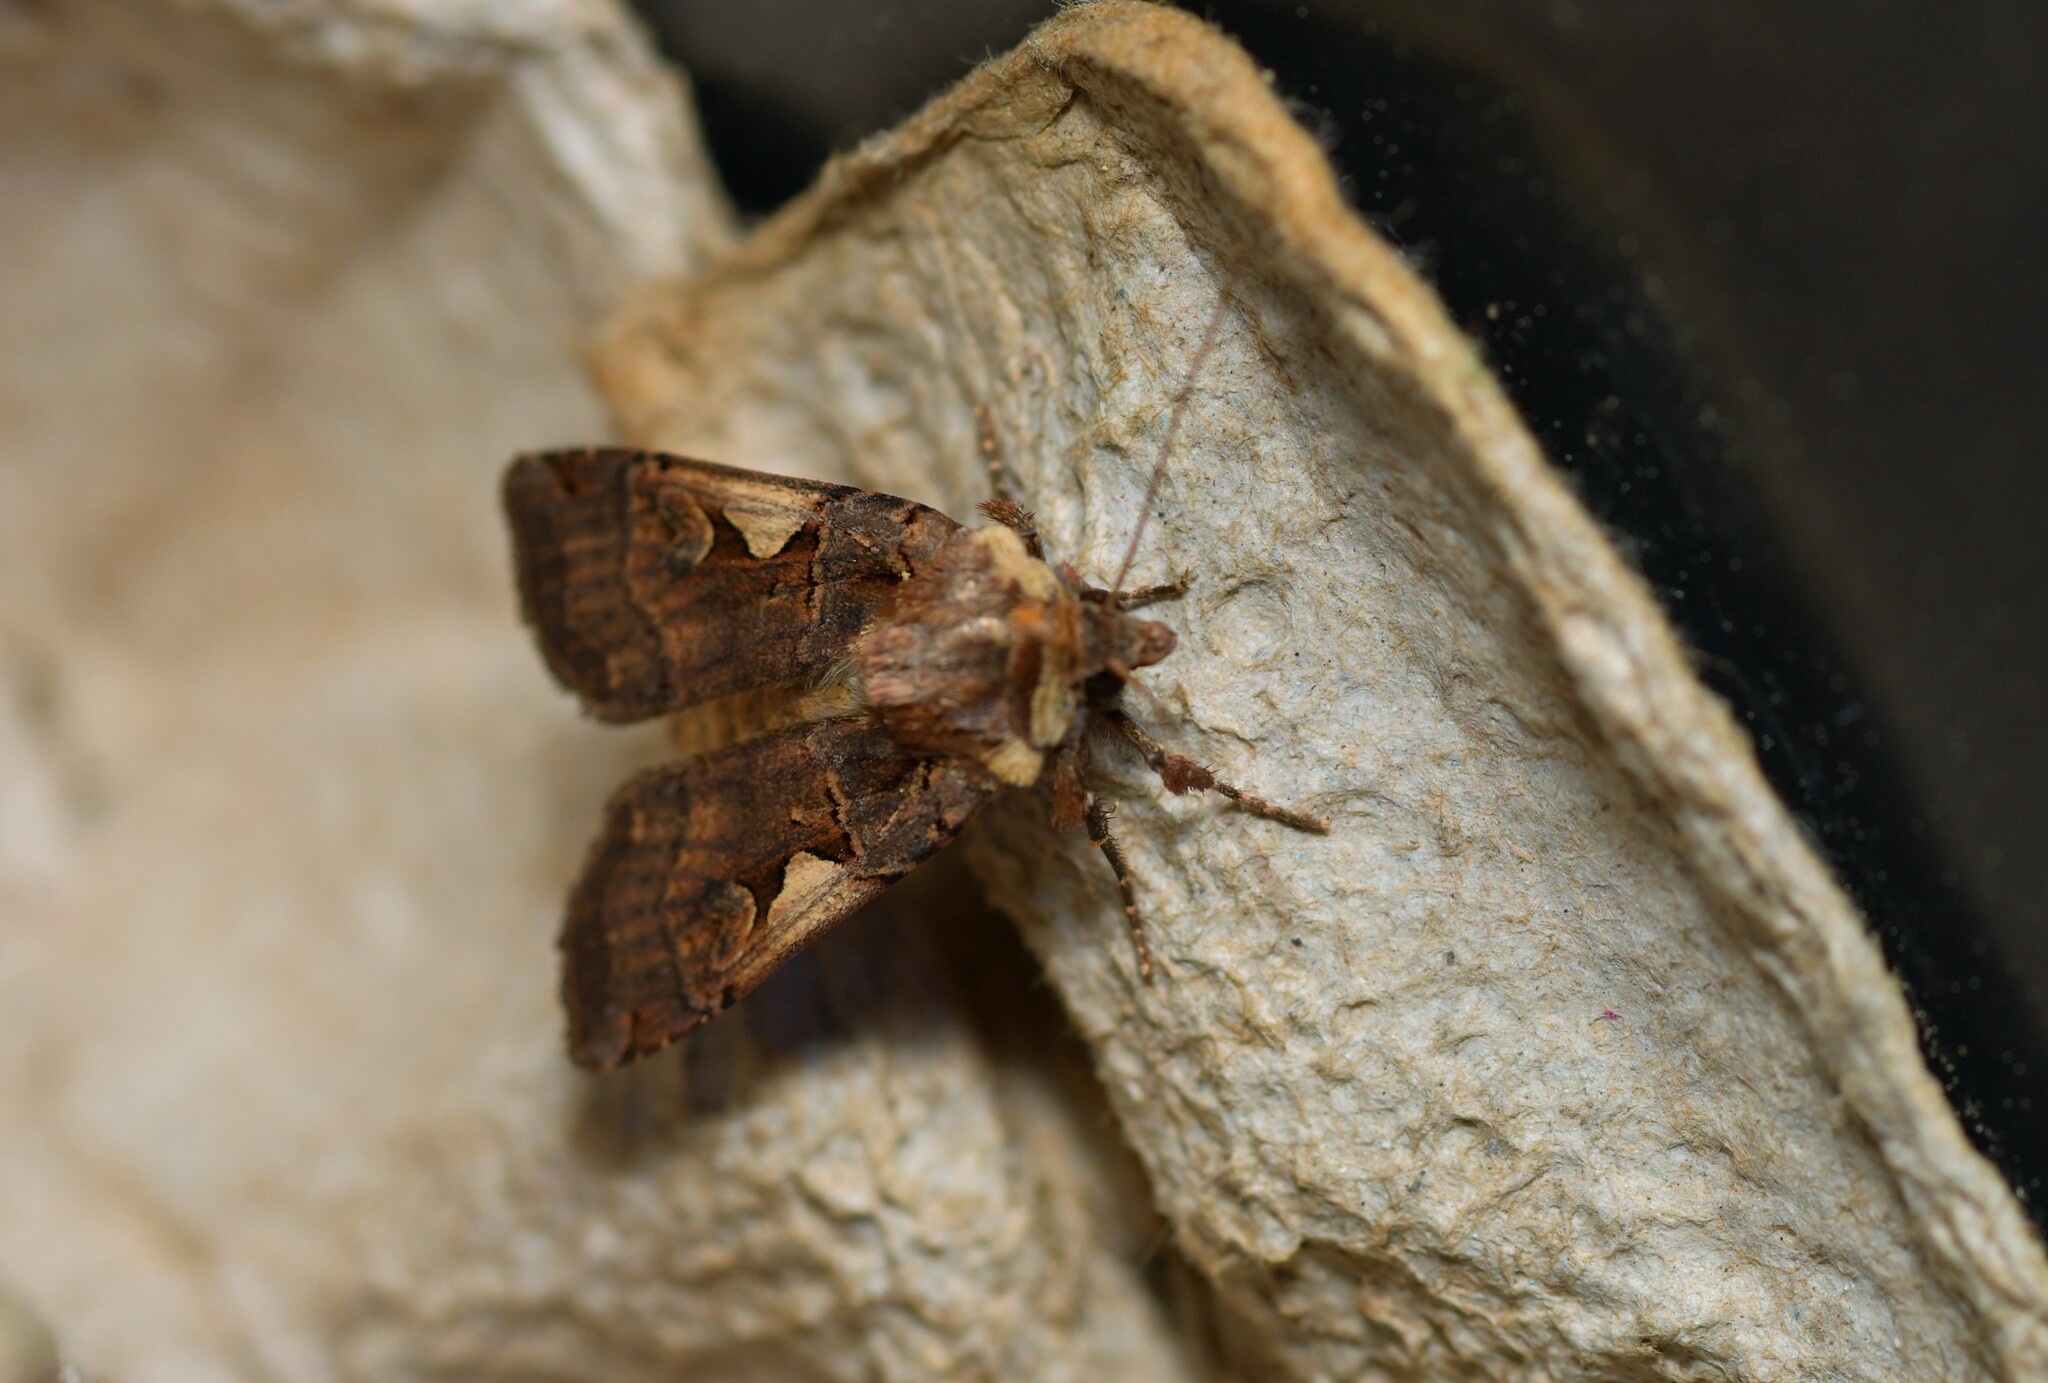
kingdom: Animalia
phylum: Arthropoda
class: Insecta
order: Lepidoptera
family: Noctuidae
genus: Xestia
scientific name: Xestia c-nigrum
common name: Setaceous hebrew character
